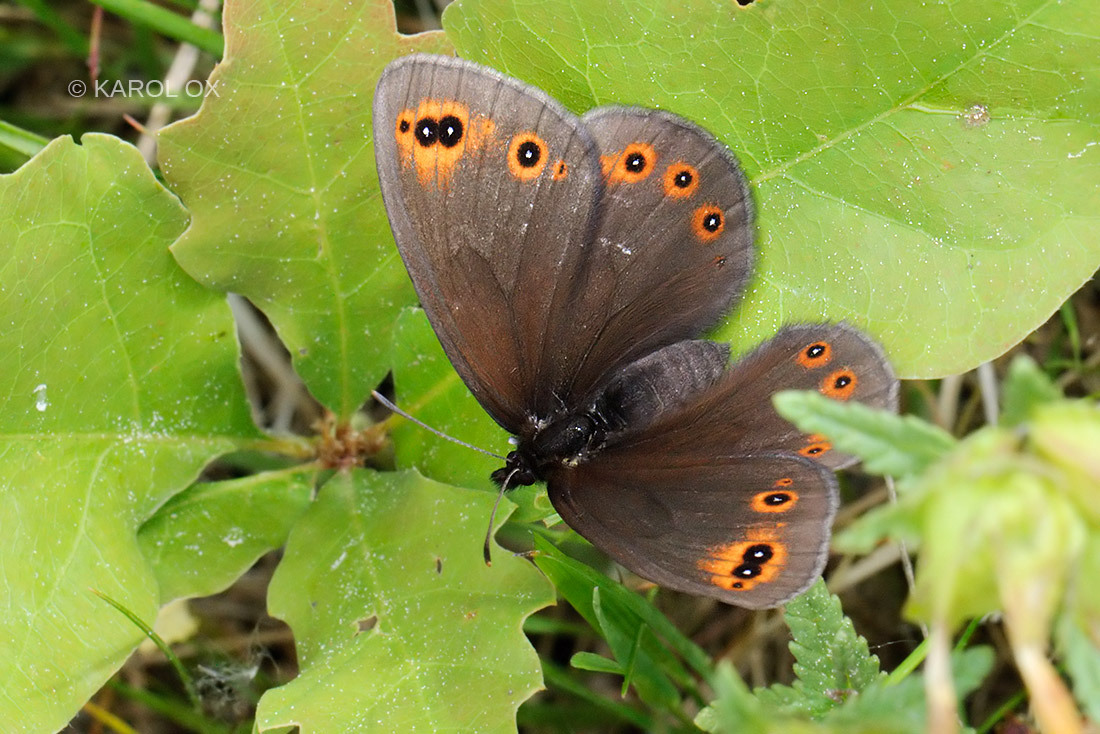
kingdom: Animalia
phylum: Arthropoda
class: Insecta
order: Lepidoptera
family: Nymphalidae
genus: Erebia
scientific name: Erebia medusa
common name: Woodland ringlet
